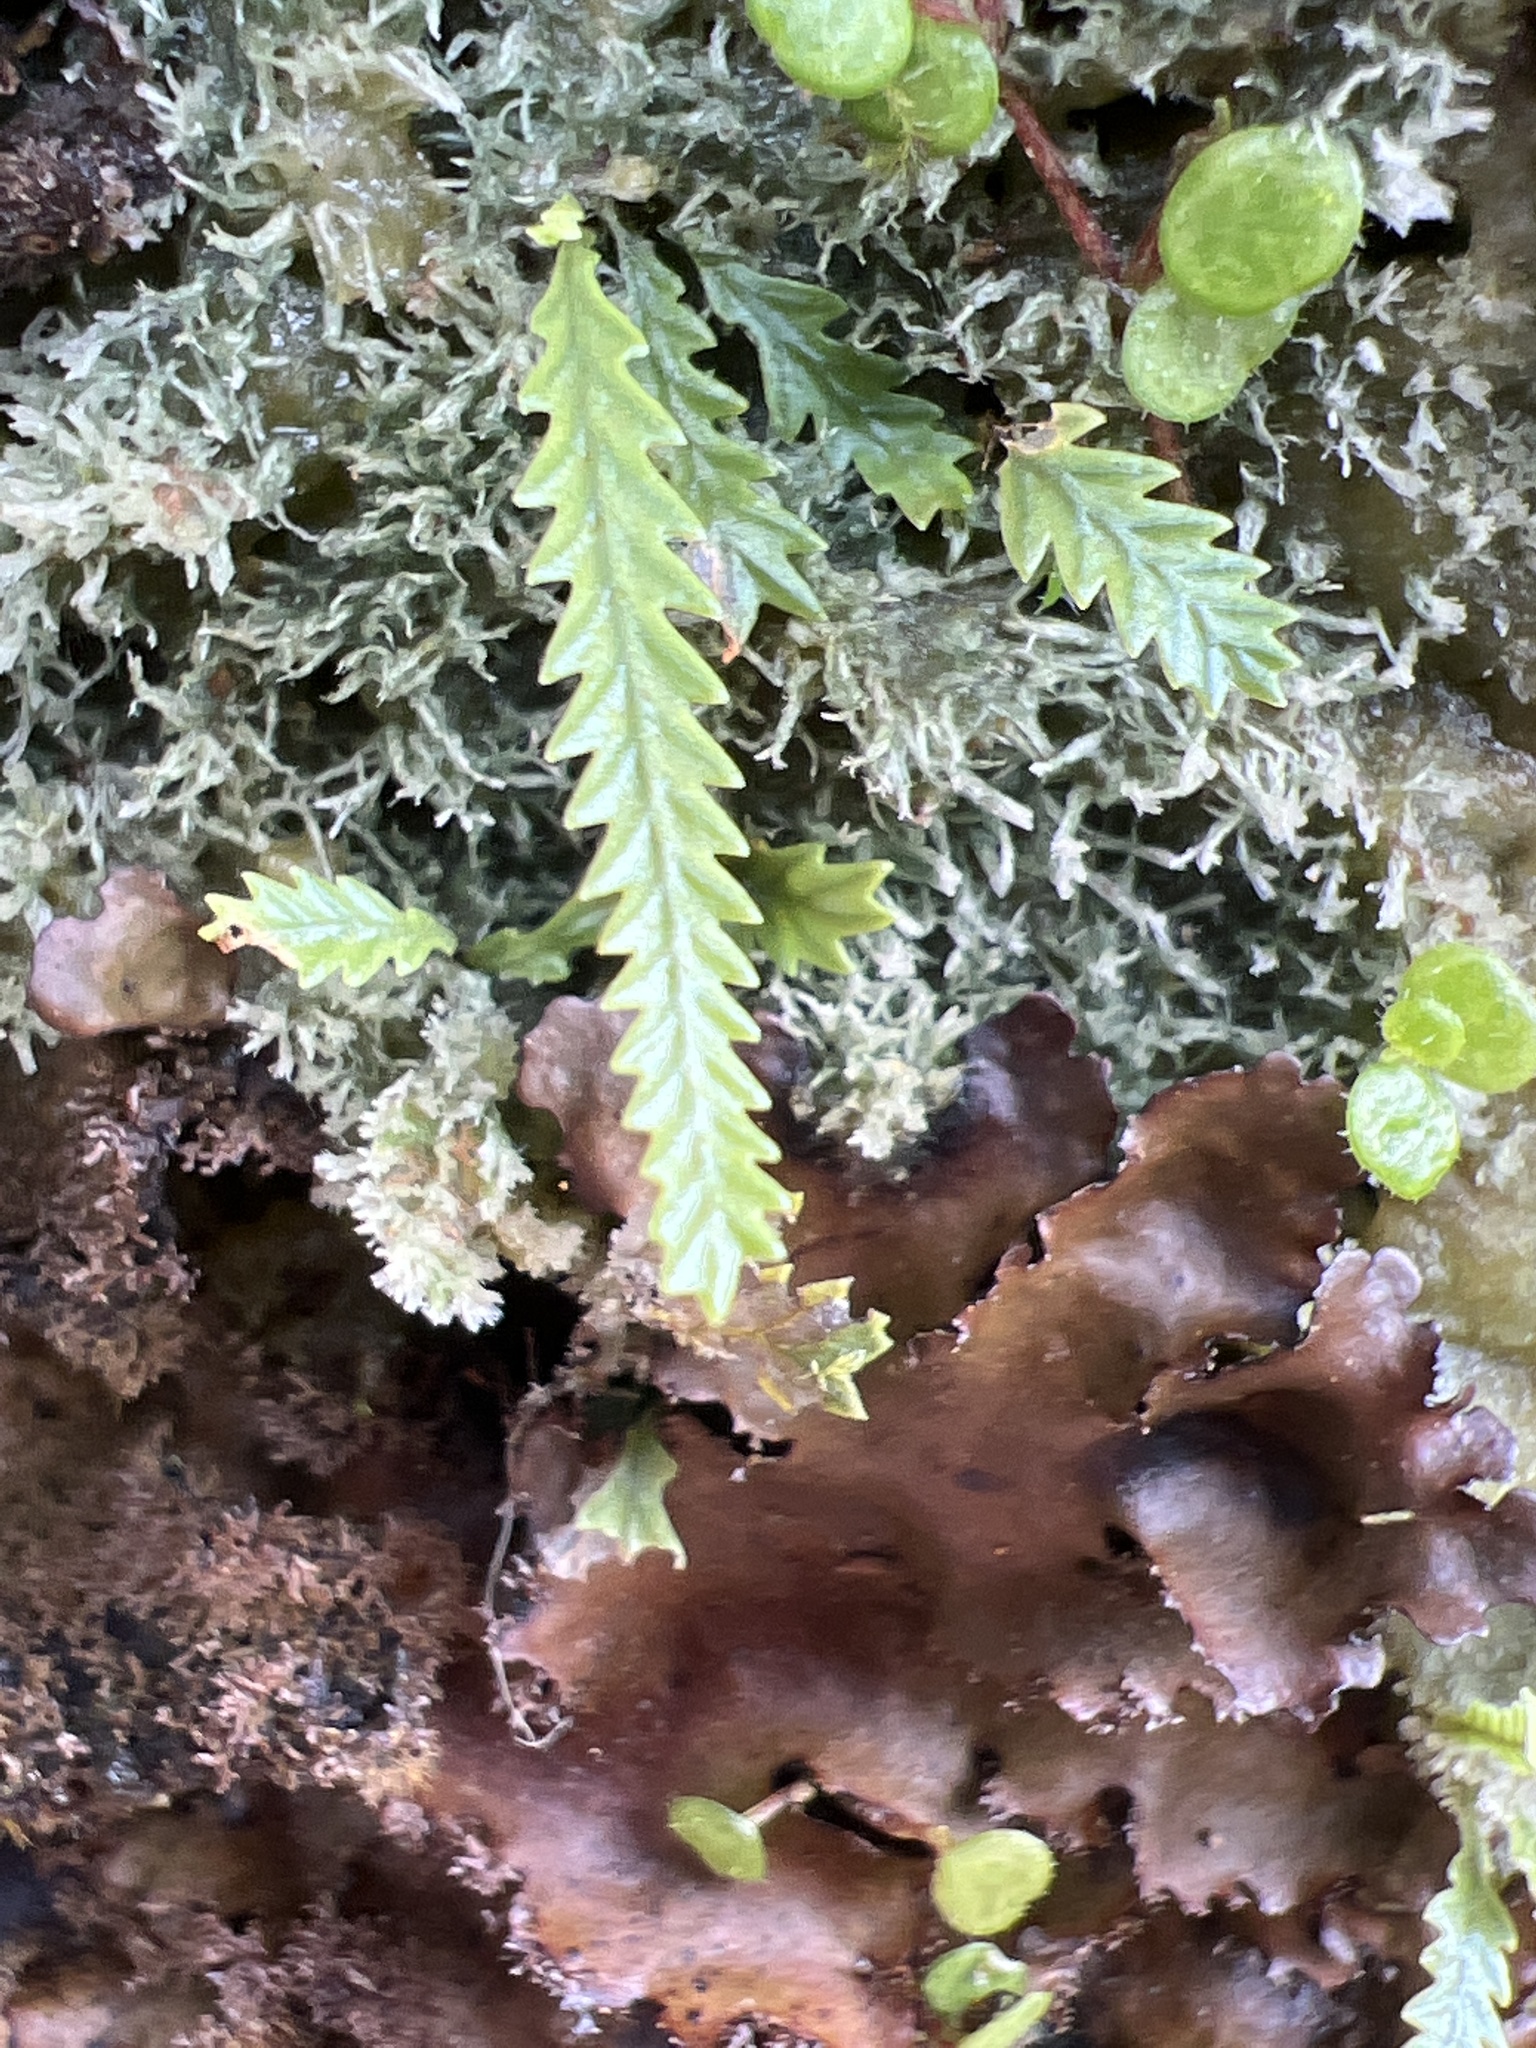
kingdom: Plantae
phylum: Tracheophyta
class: Polypodiopsida
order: Polypodiales
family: Polypodiaceae
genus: Cochlidium
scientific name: Cochlidium serrulatum
